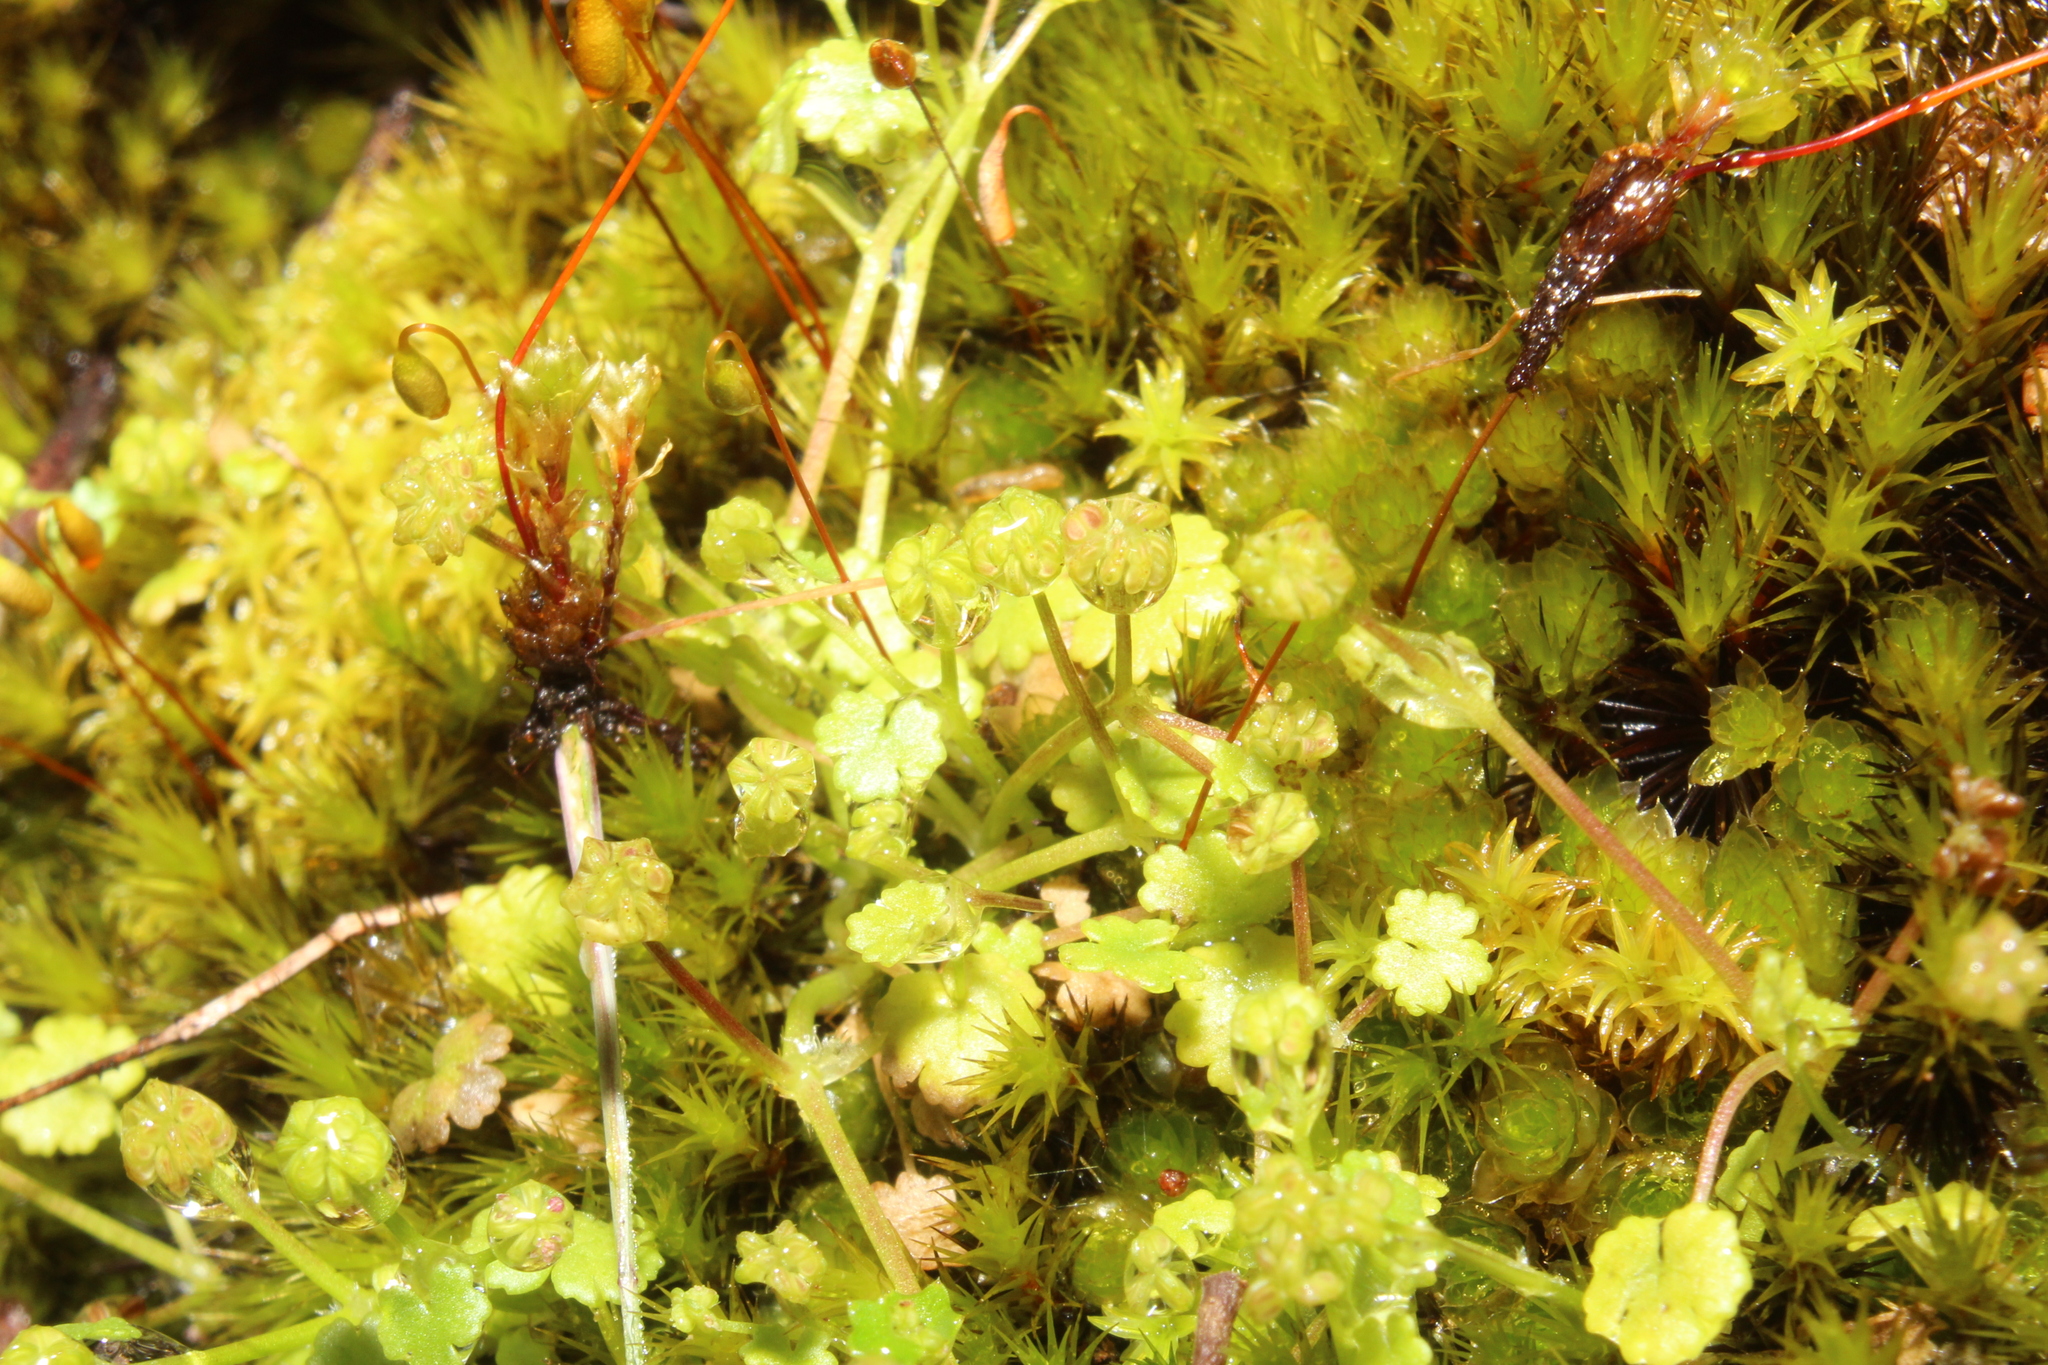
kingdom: Plantae
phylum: Tracheophyta
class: Magnoliopsida
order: Apiales
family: Araliaceae
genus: Hydrocotyle
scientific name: Hydrocotyle scutellifera
